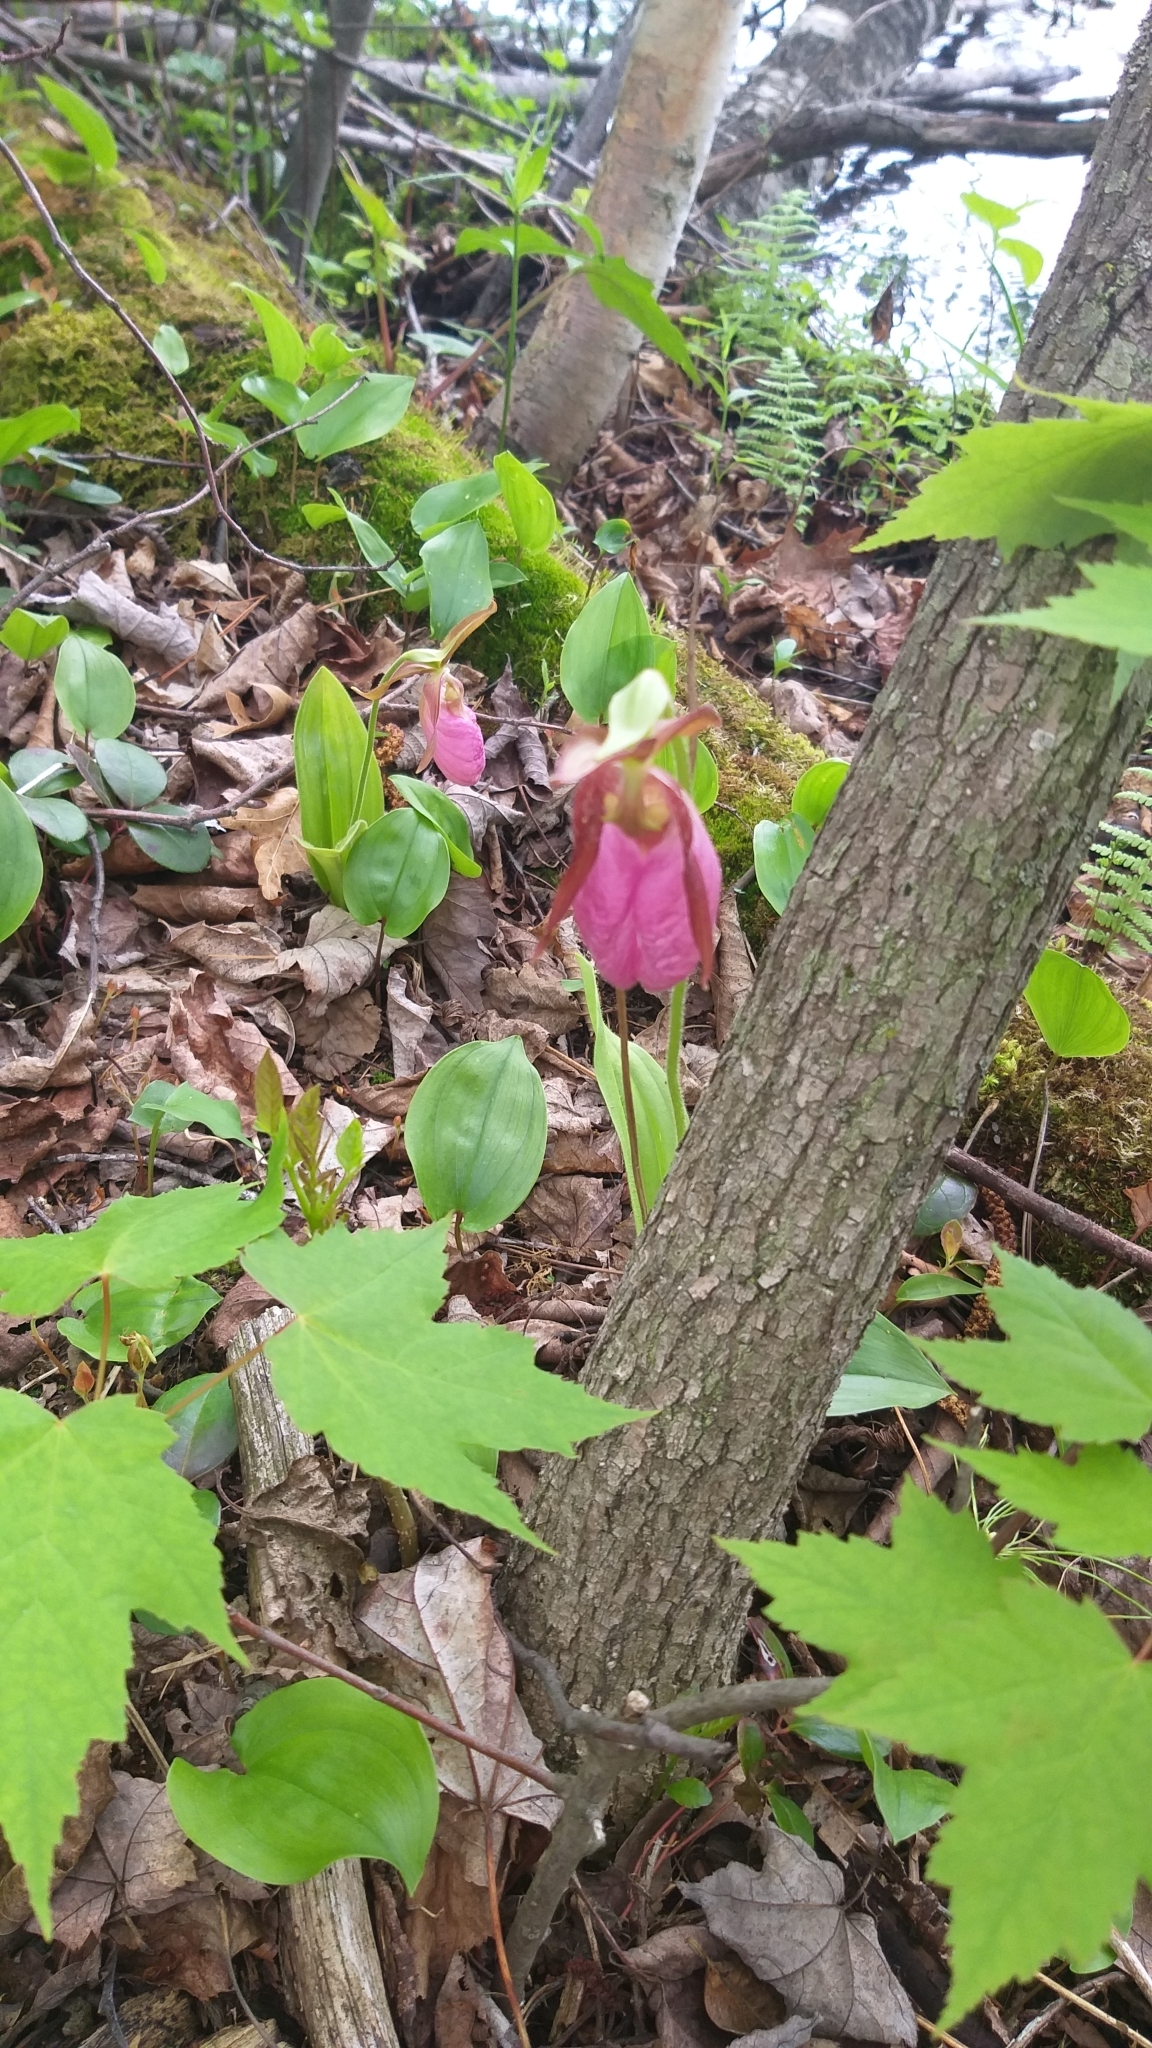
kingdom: Plantae
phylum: Tracheophyta
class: Liliopsida
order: Asparagales
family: Orchidaceae
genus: Cypripedium
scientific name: Cypripedium acaule
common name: Pink lady's-slipper
